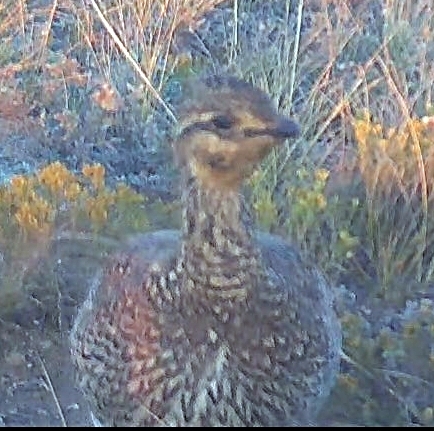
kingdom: Animalia
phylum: Chordata
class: Aves
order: Galliformes
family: Phasianidae
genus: Tympanuchus
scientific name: Tympanuchus phasianellus
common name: Sharp-tailed grouse
